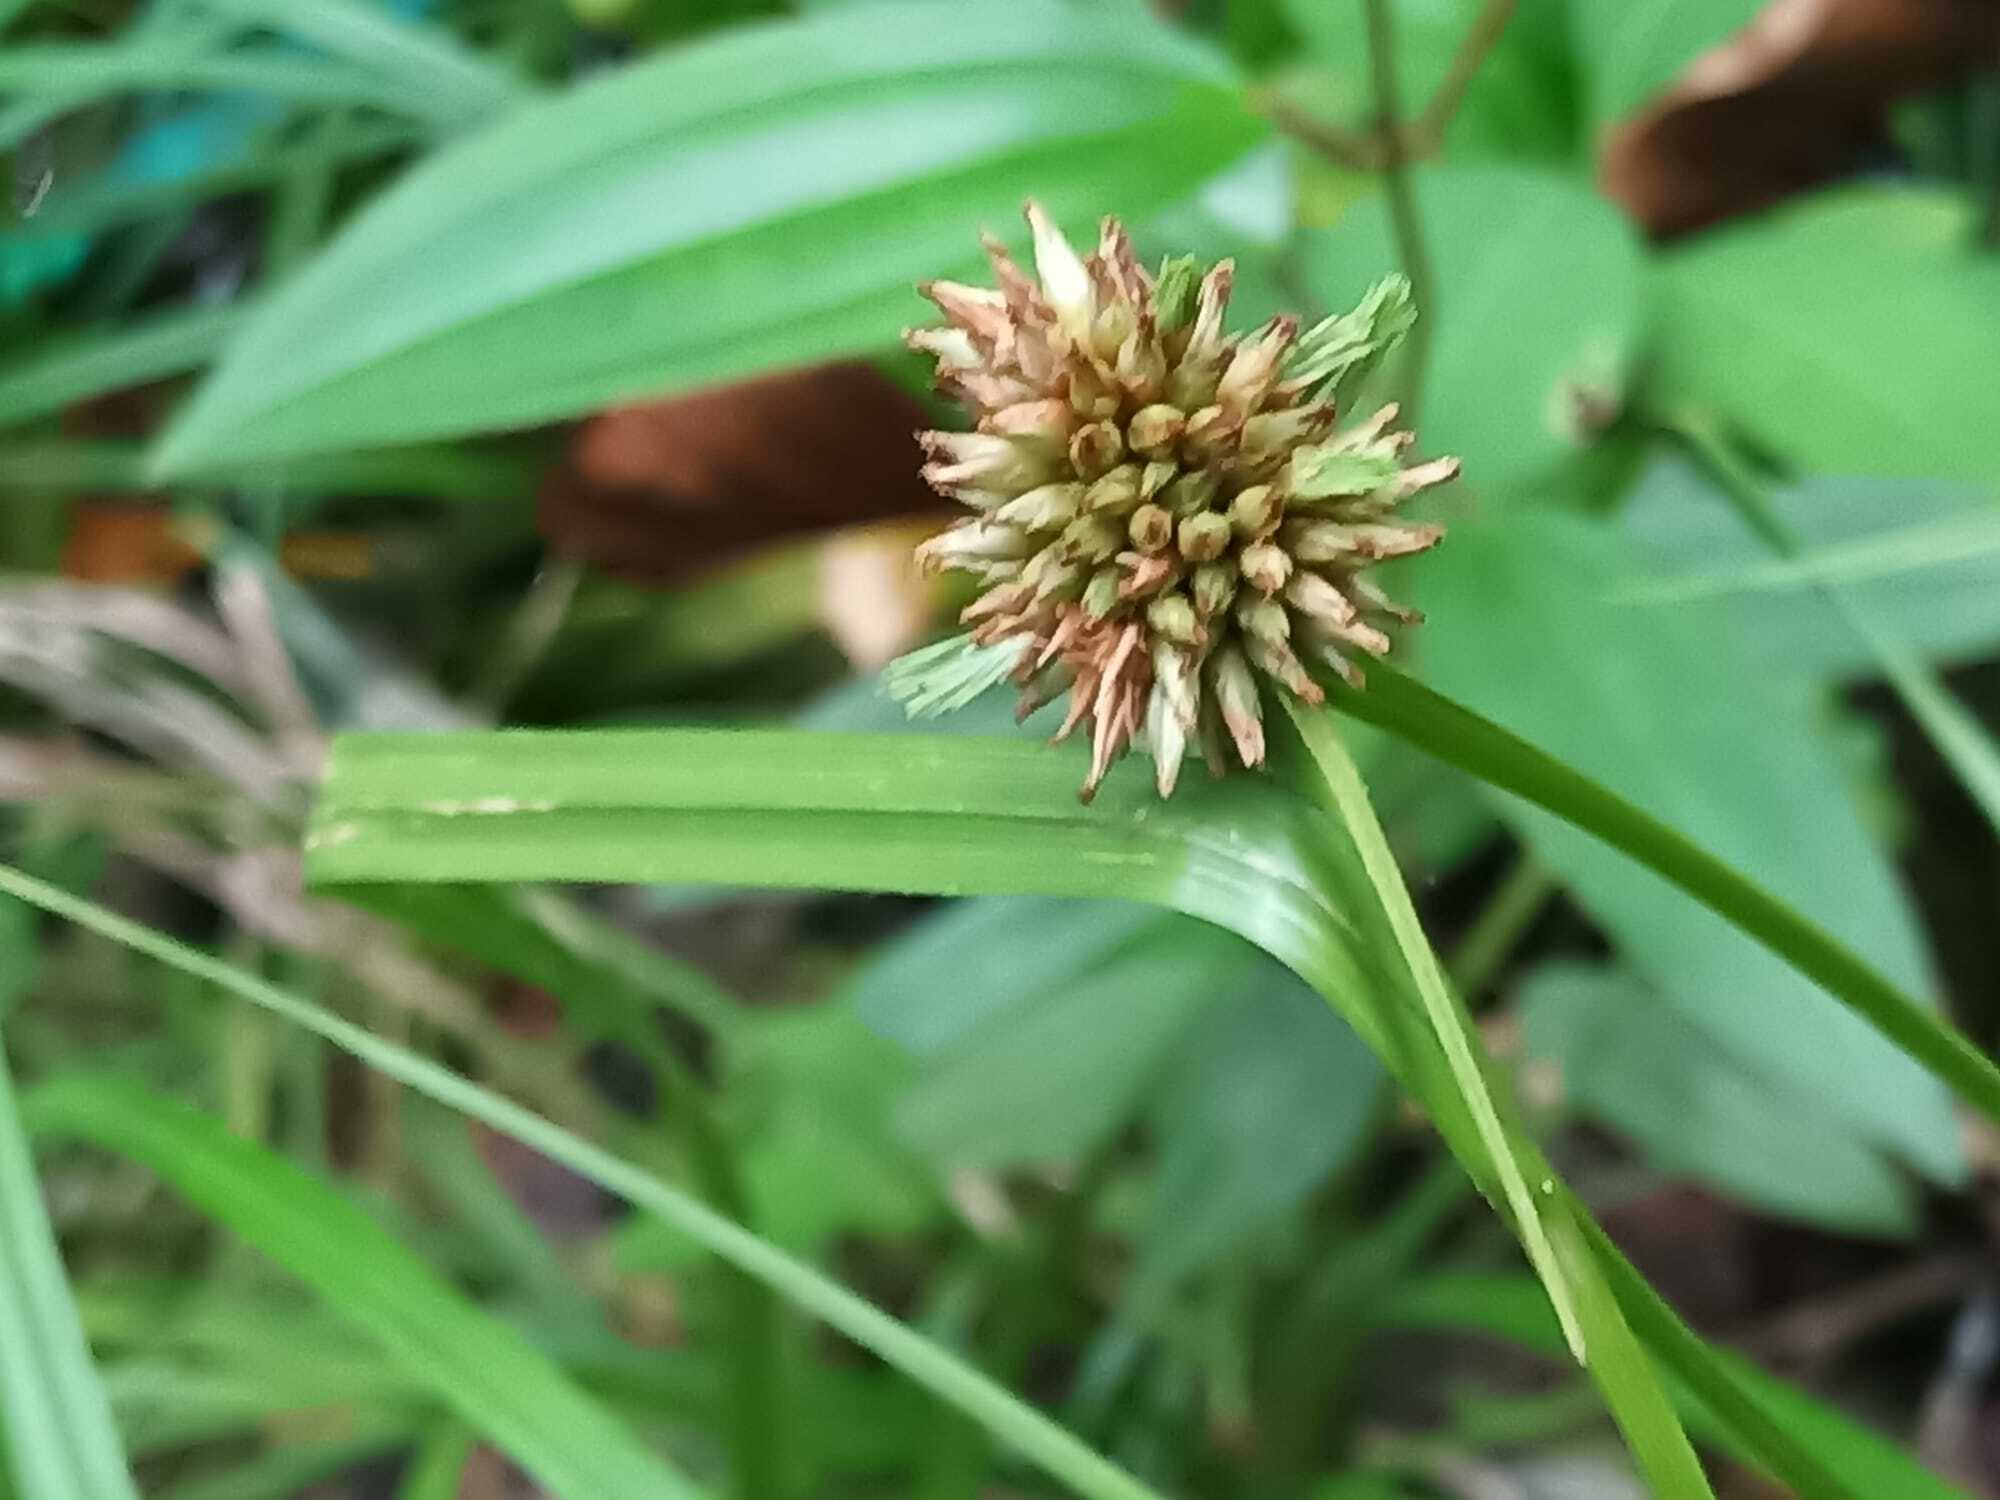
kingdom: Plantae
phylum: Tracheophyta
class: Liliopsida
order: Poales
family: Cyperaceae
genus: Rhynchospora
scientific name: Rhynchospora cephalotes
